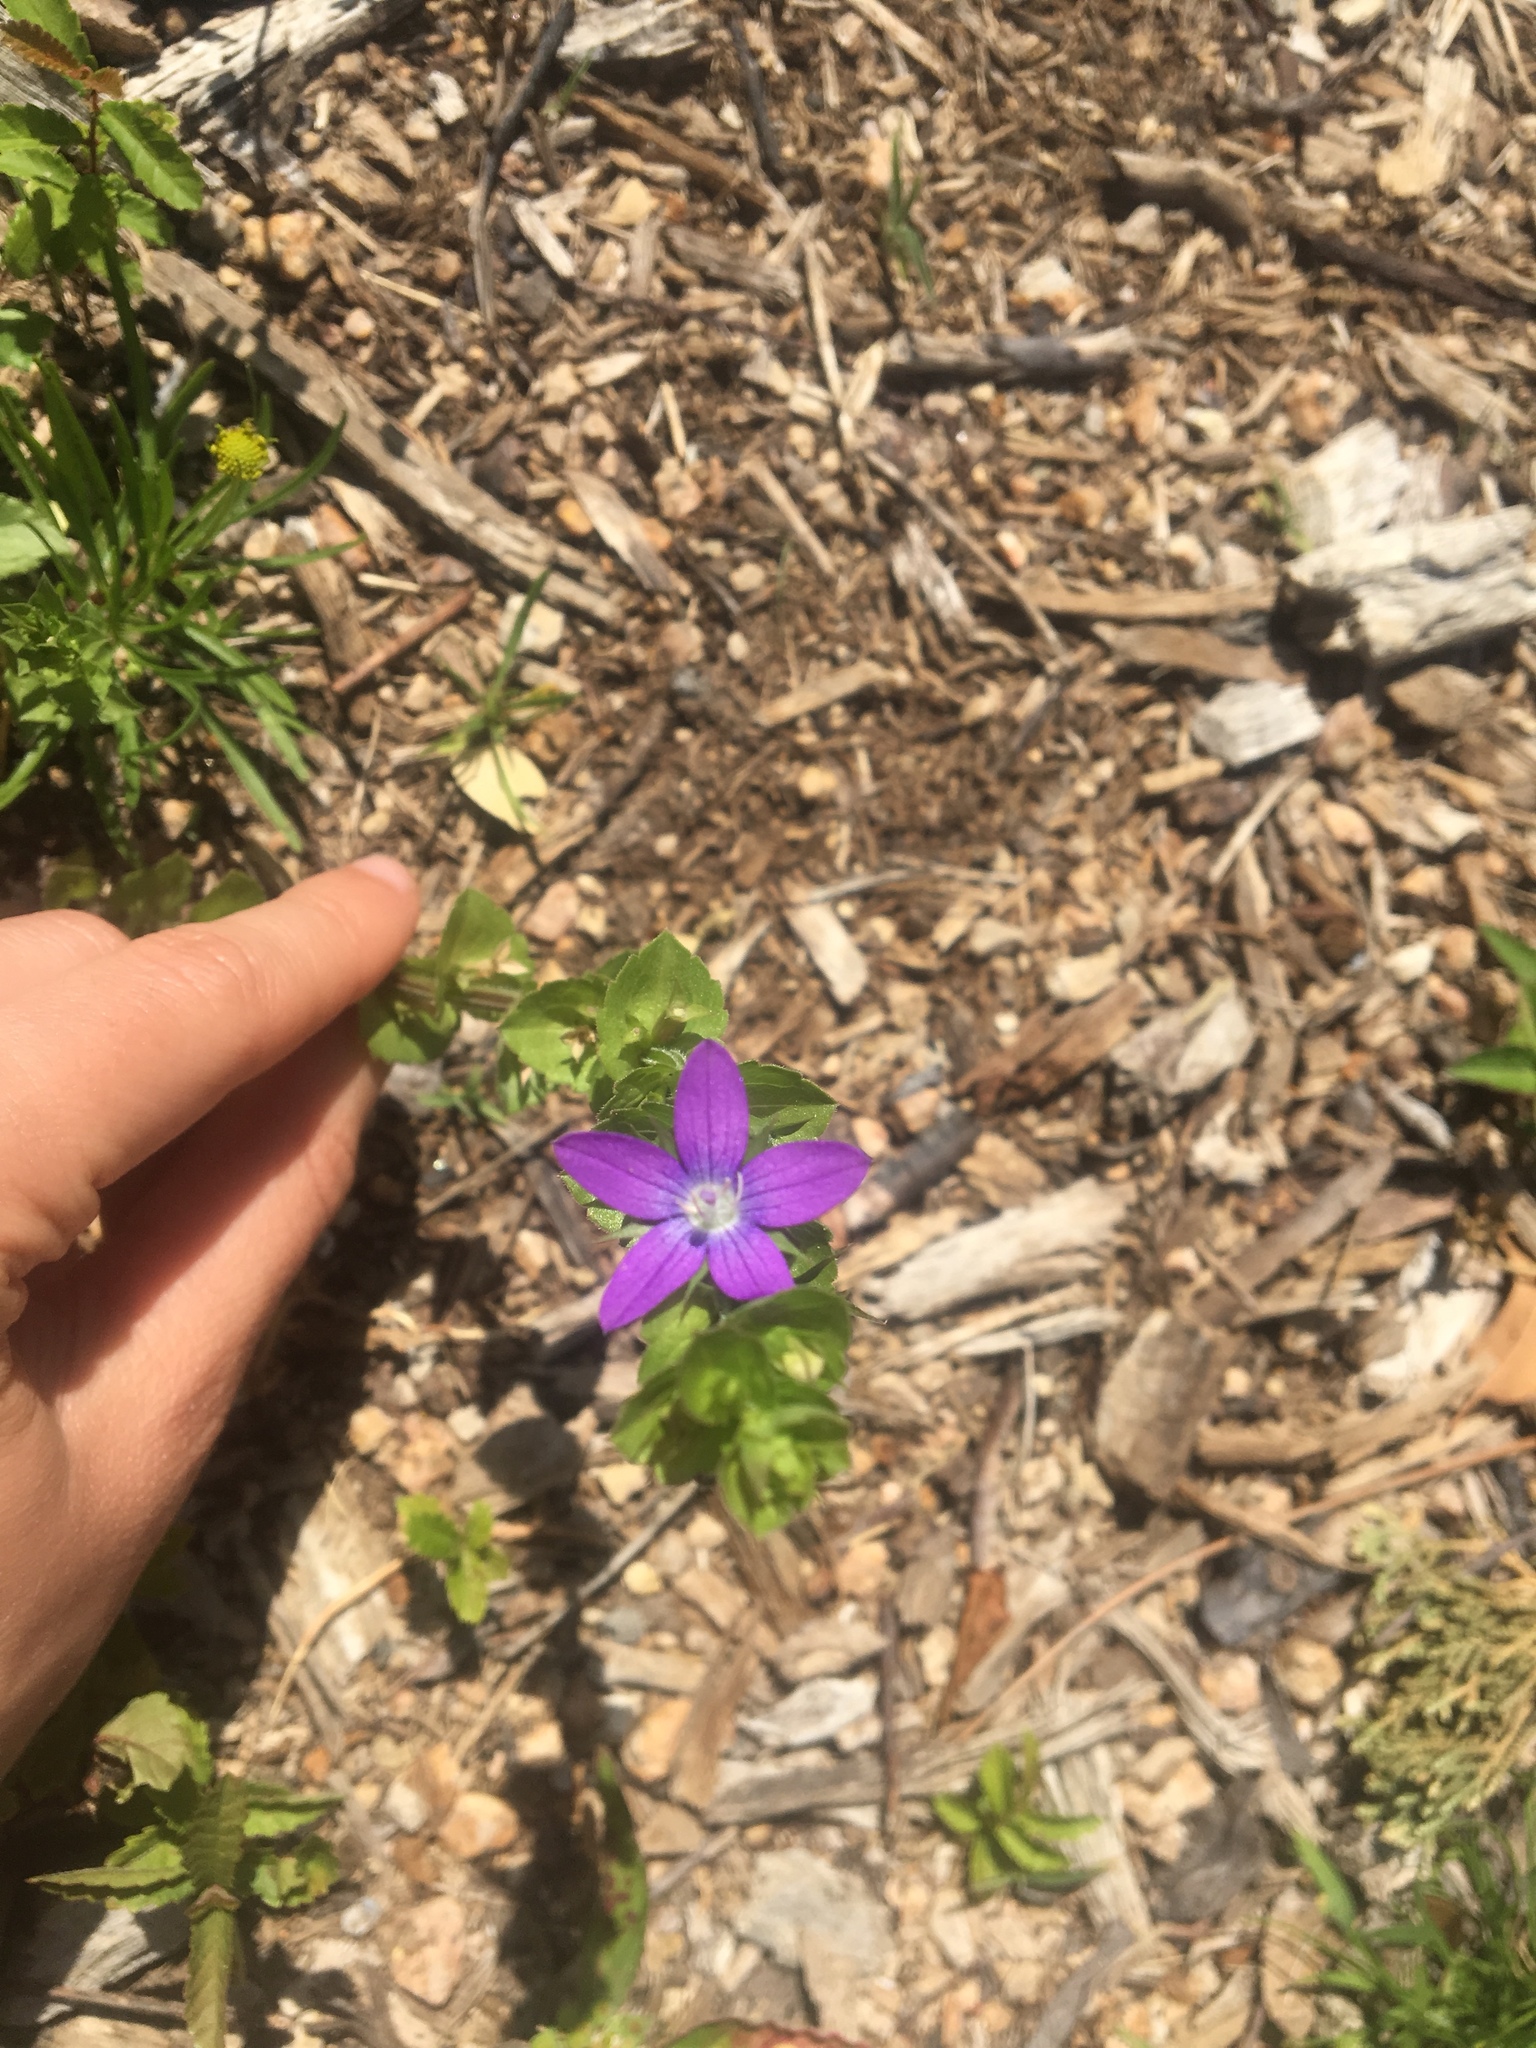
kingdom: Plantae
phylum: Tracheophyta
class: Magnoliopsida
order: Asterales
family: Campanulaceae
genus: Triodanis
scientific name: Triodanis perfoliata
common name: Clasping venus' looking-glass
